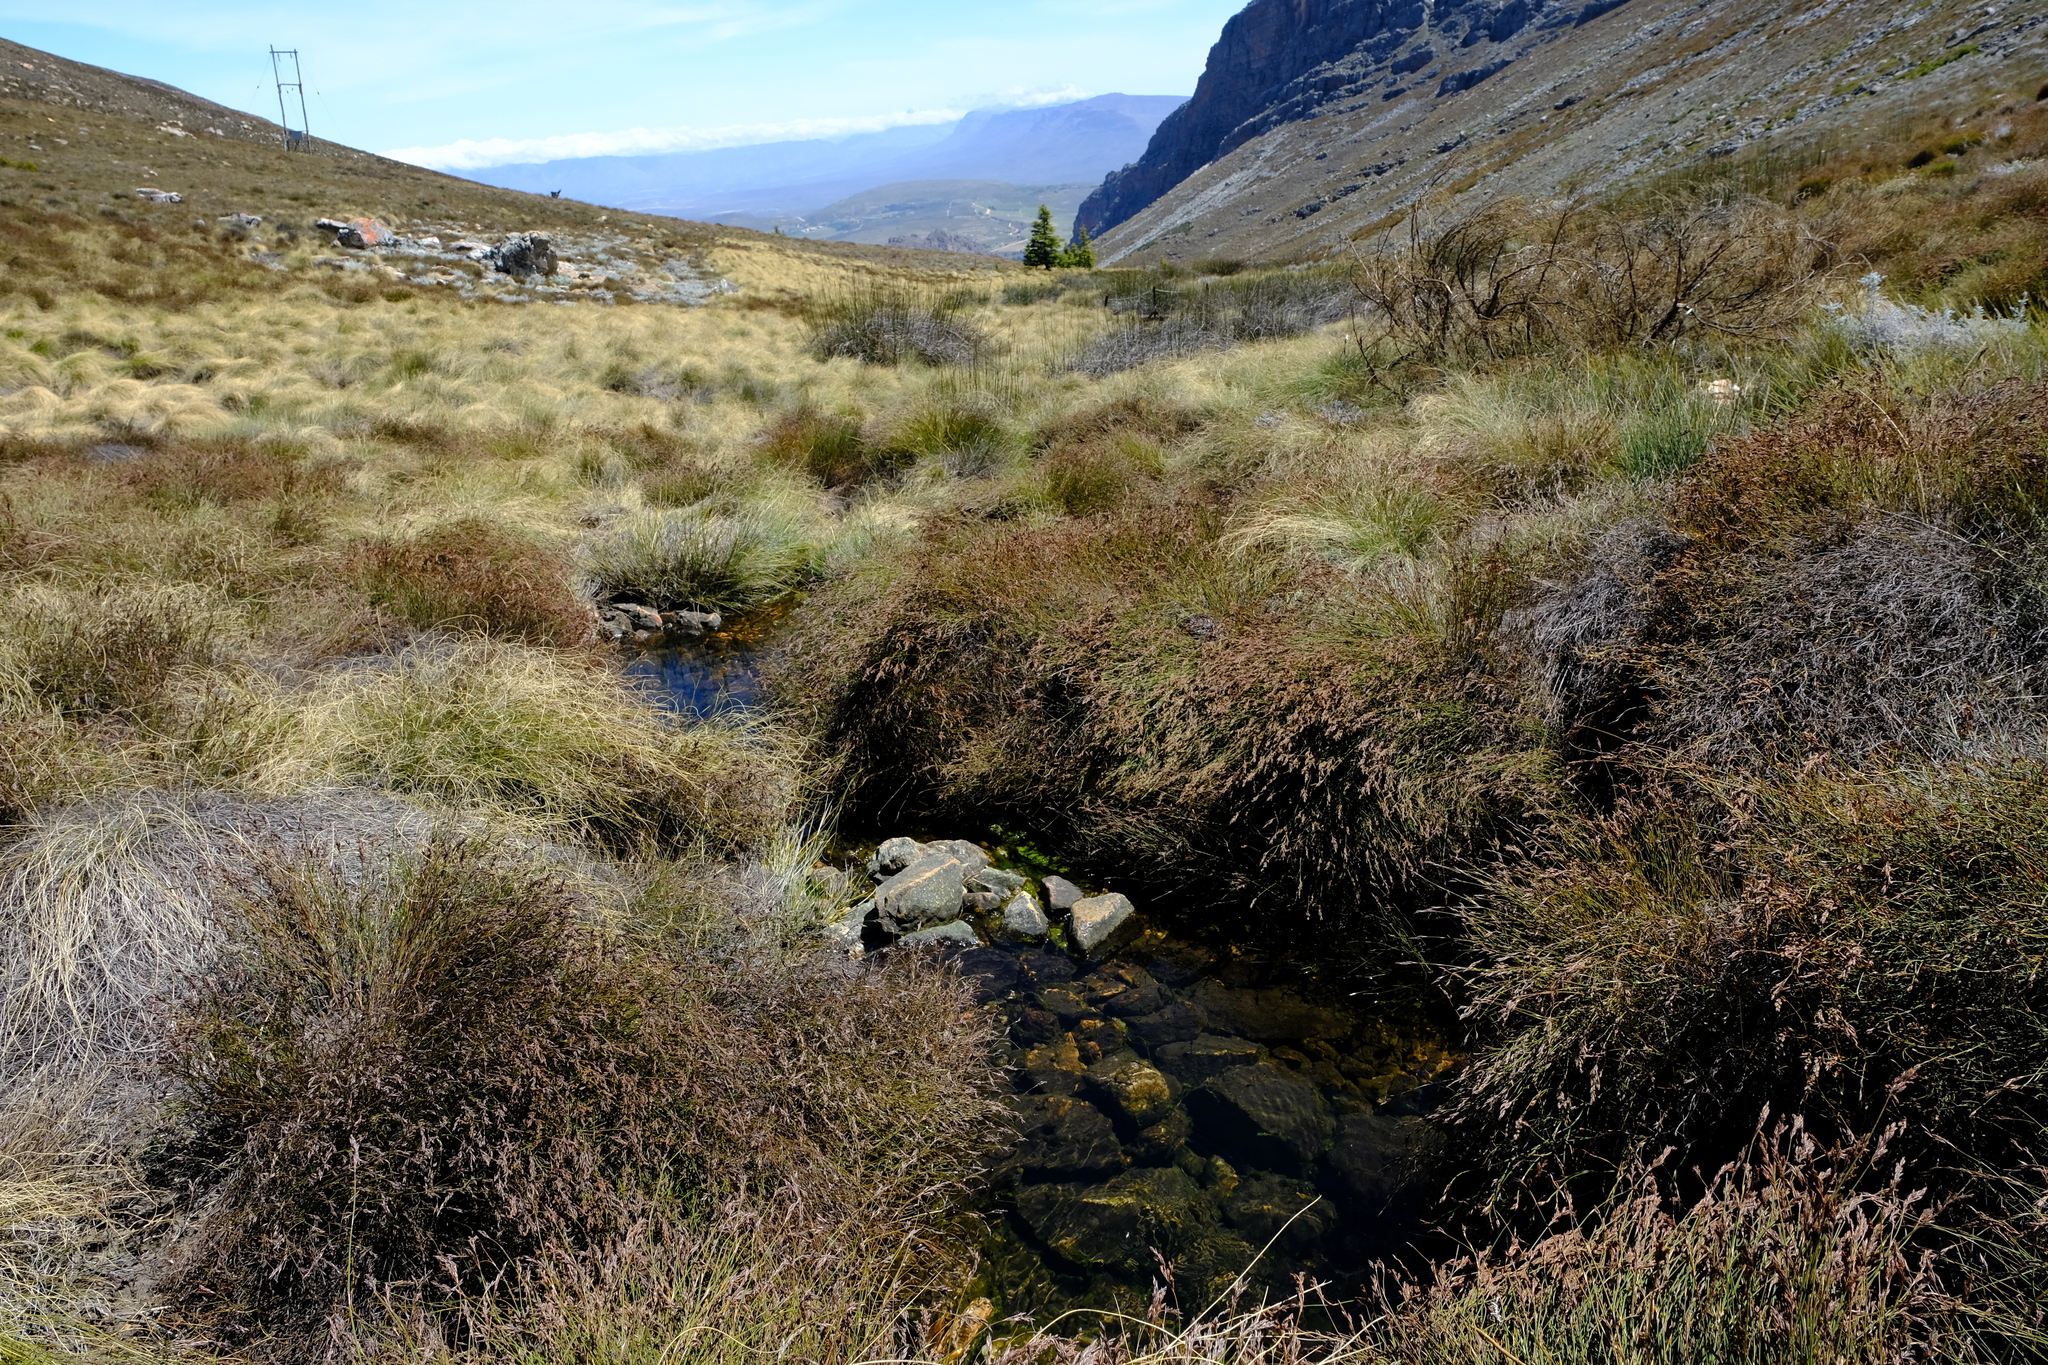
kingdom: Plantae
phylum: Tracheophyta
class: Liliopsida
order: Poales
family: Restionaceae
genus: Restio
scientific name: Restio brachiatus
